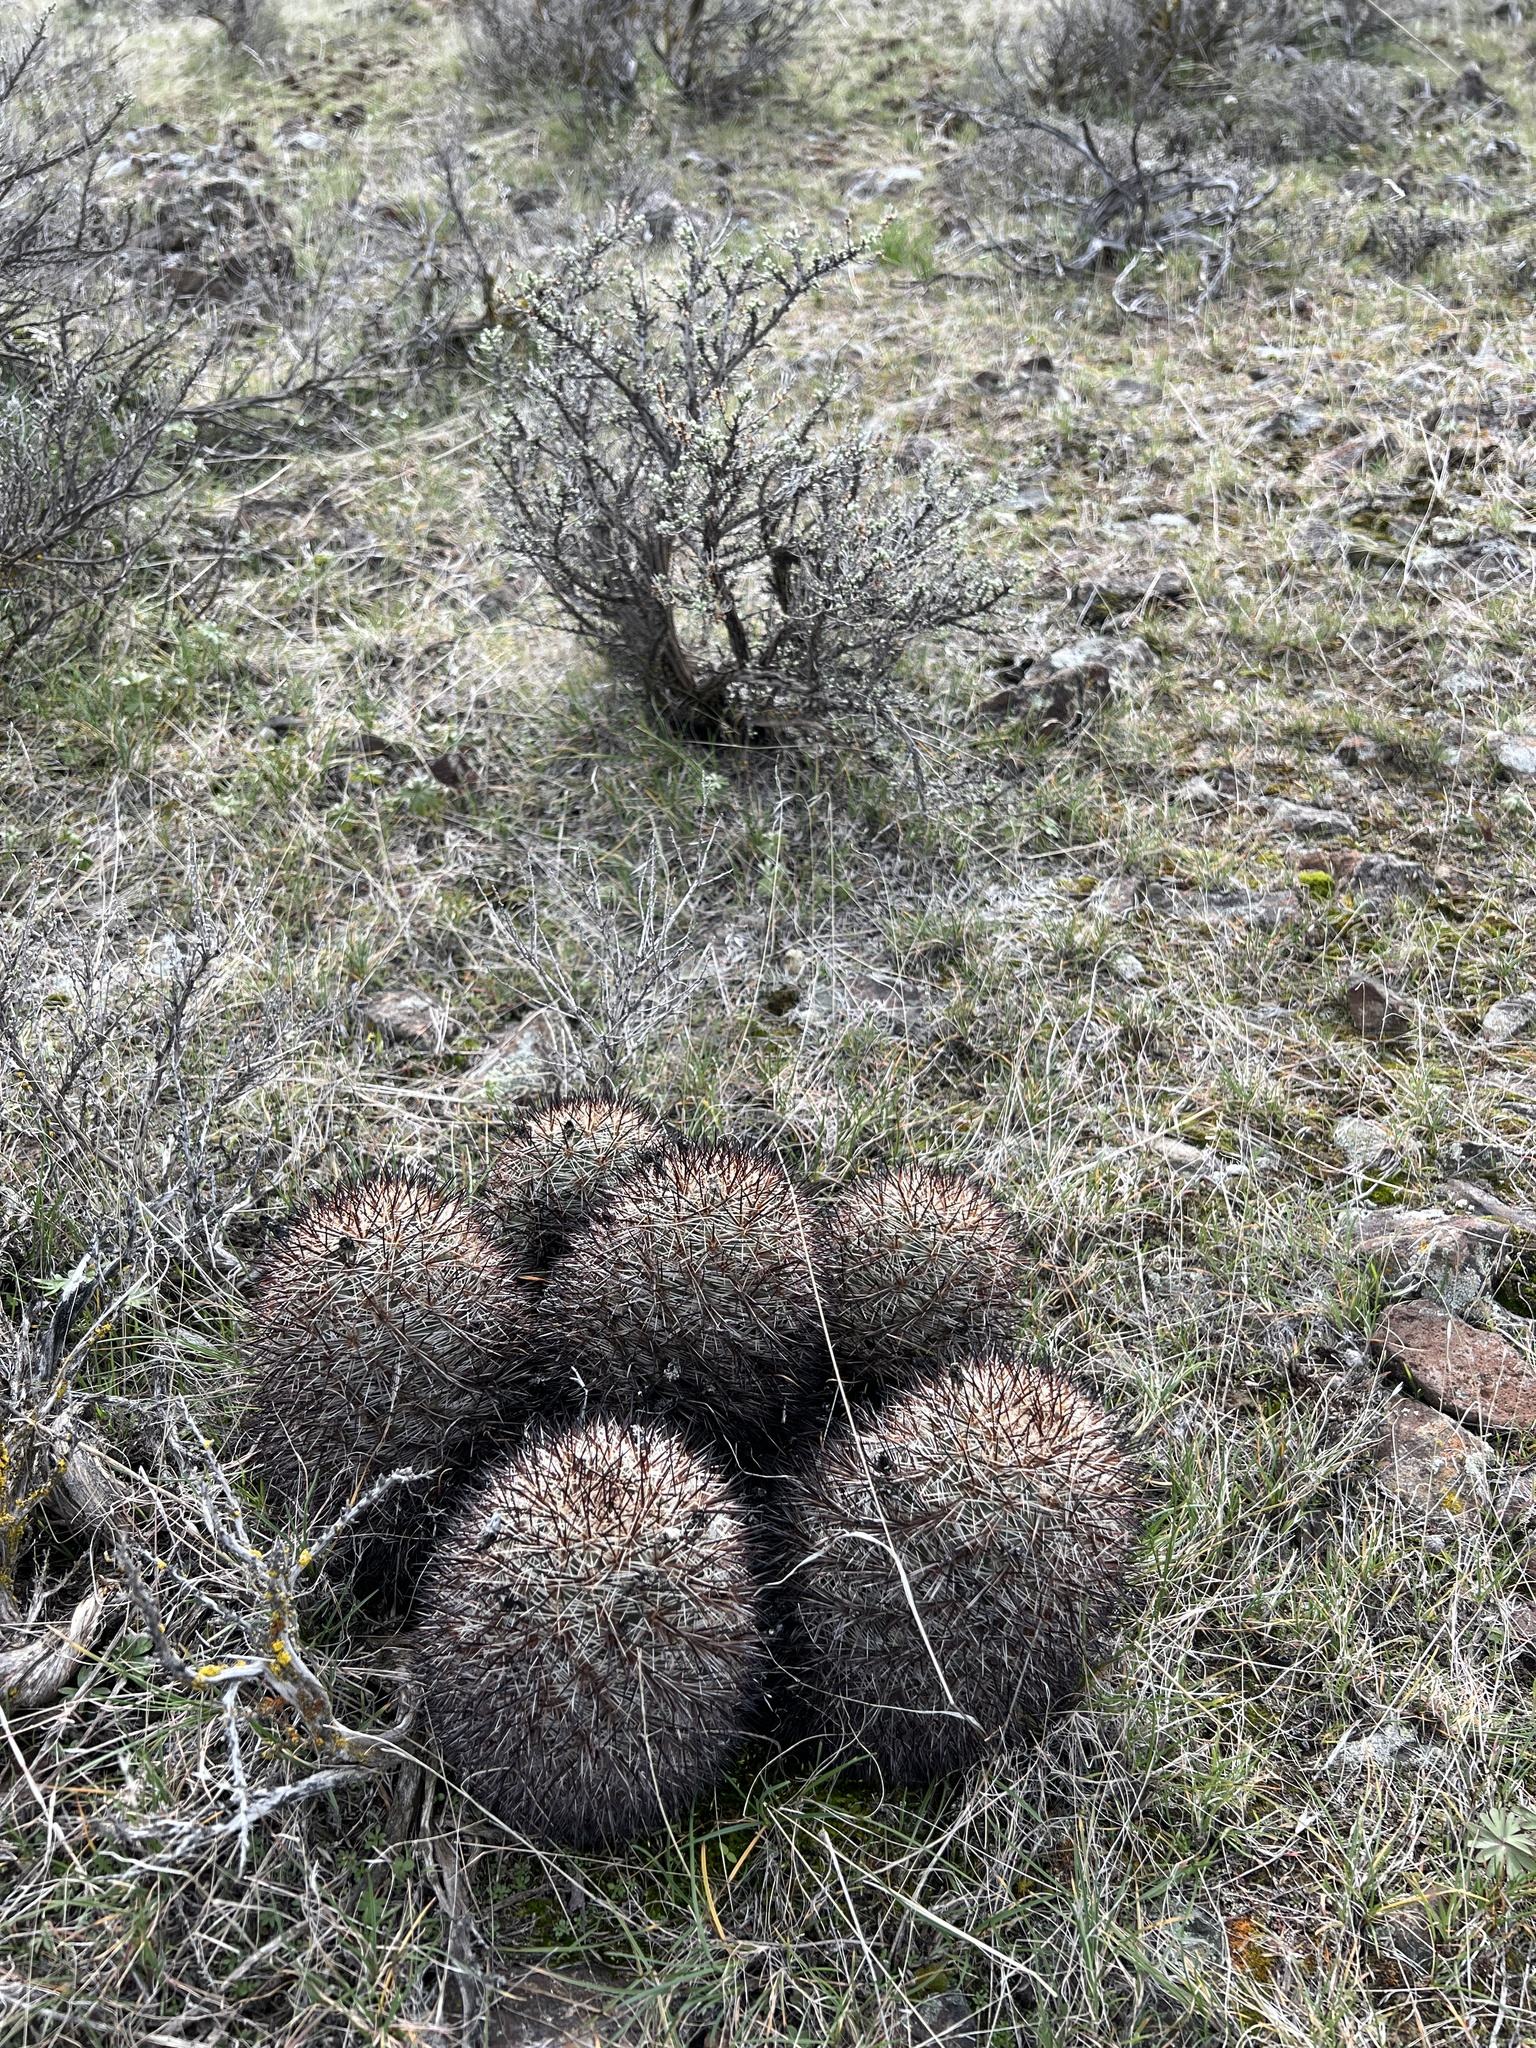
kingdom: Plantae
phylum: Tracheophyta
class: Magnoliopsida
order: Caryophyllales
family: Cactaceae
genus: Pediocactus
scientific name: Pediocactus nigrispinus
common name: Simpson's hedgehog cactus
